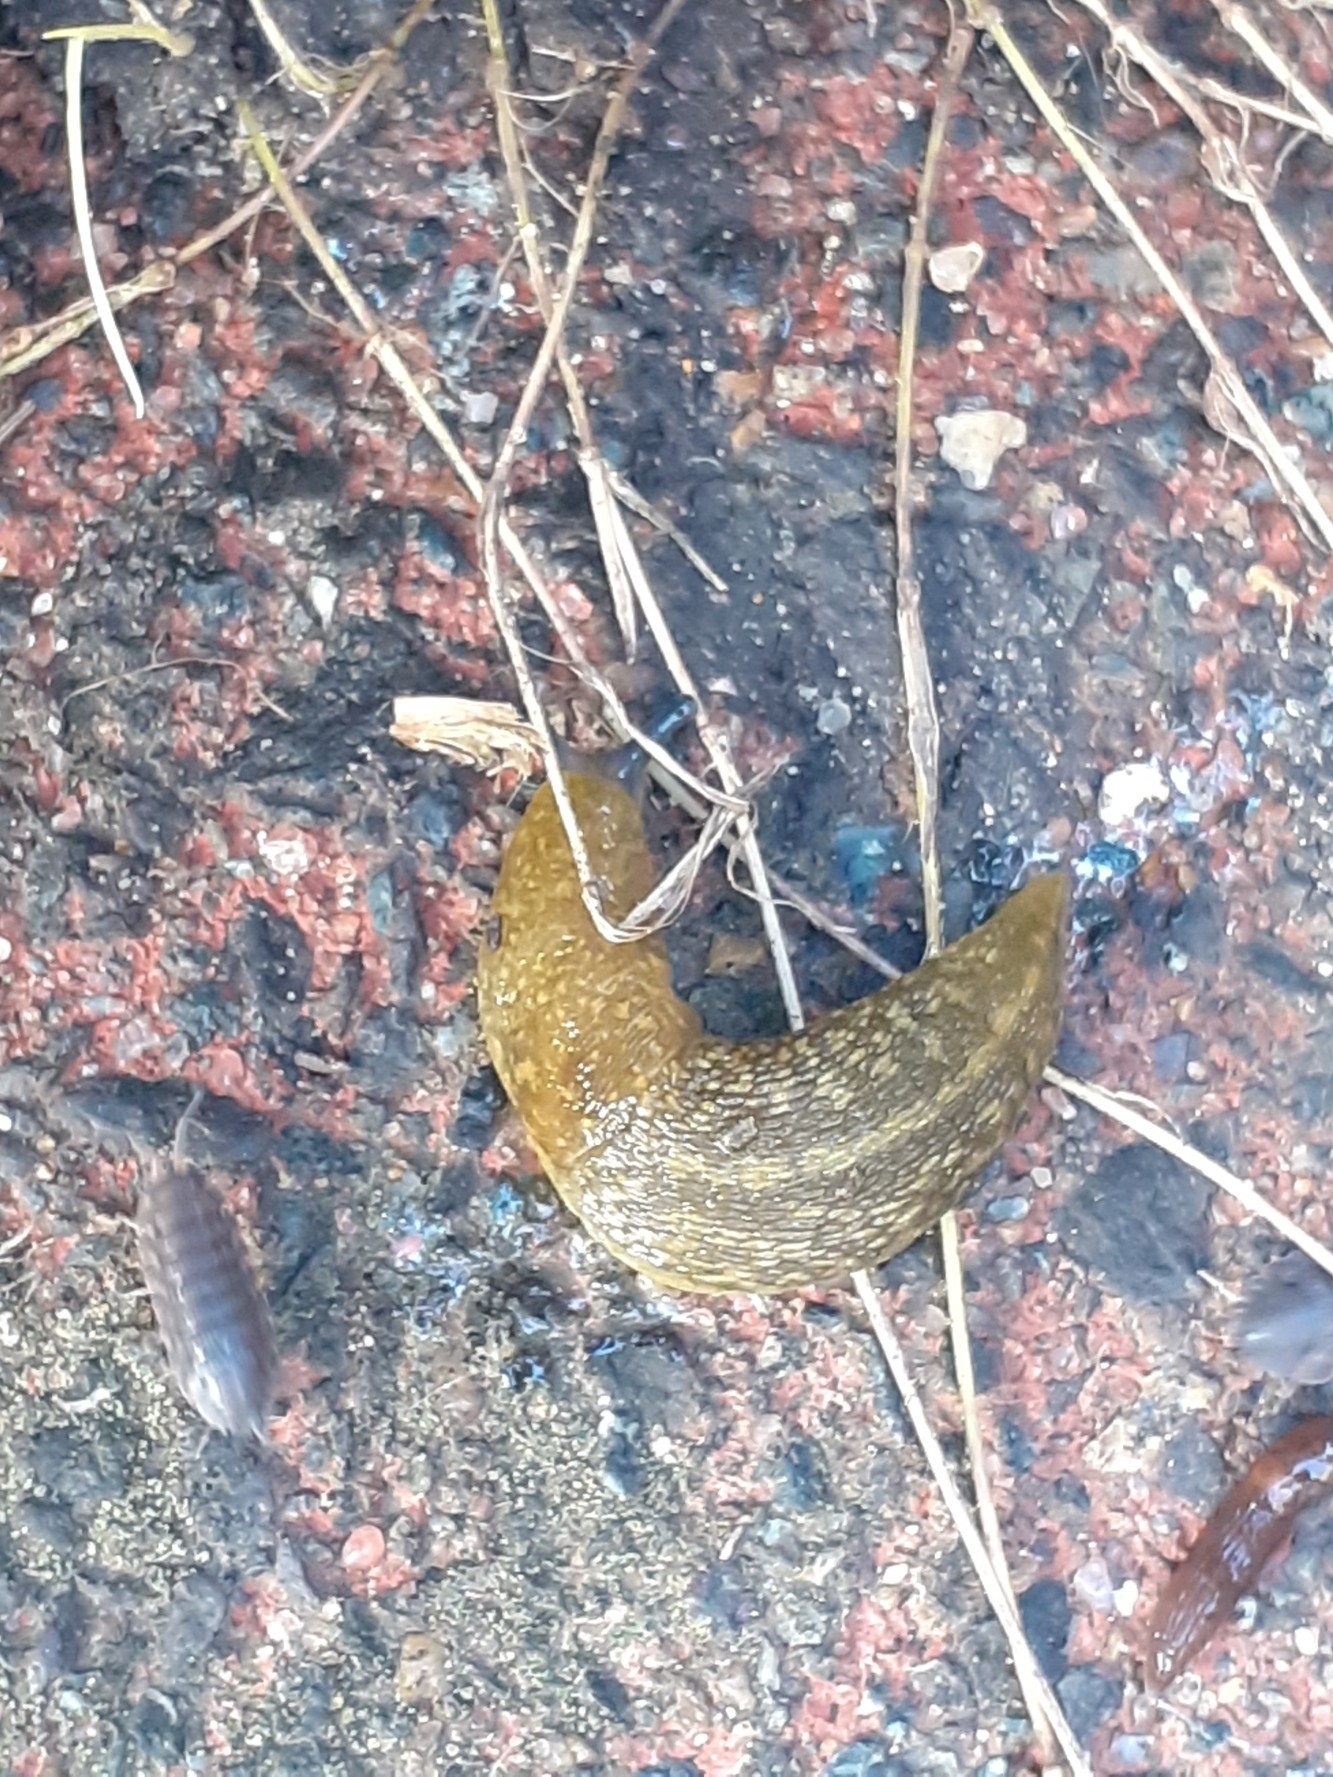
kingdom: Animalia
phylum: Mollusca
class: Gastropoda
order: Stylommatophora
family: Limacidae
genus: Limacus
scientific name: Limacus flavus
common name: Yellow gardenslug
